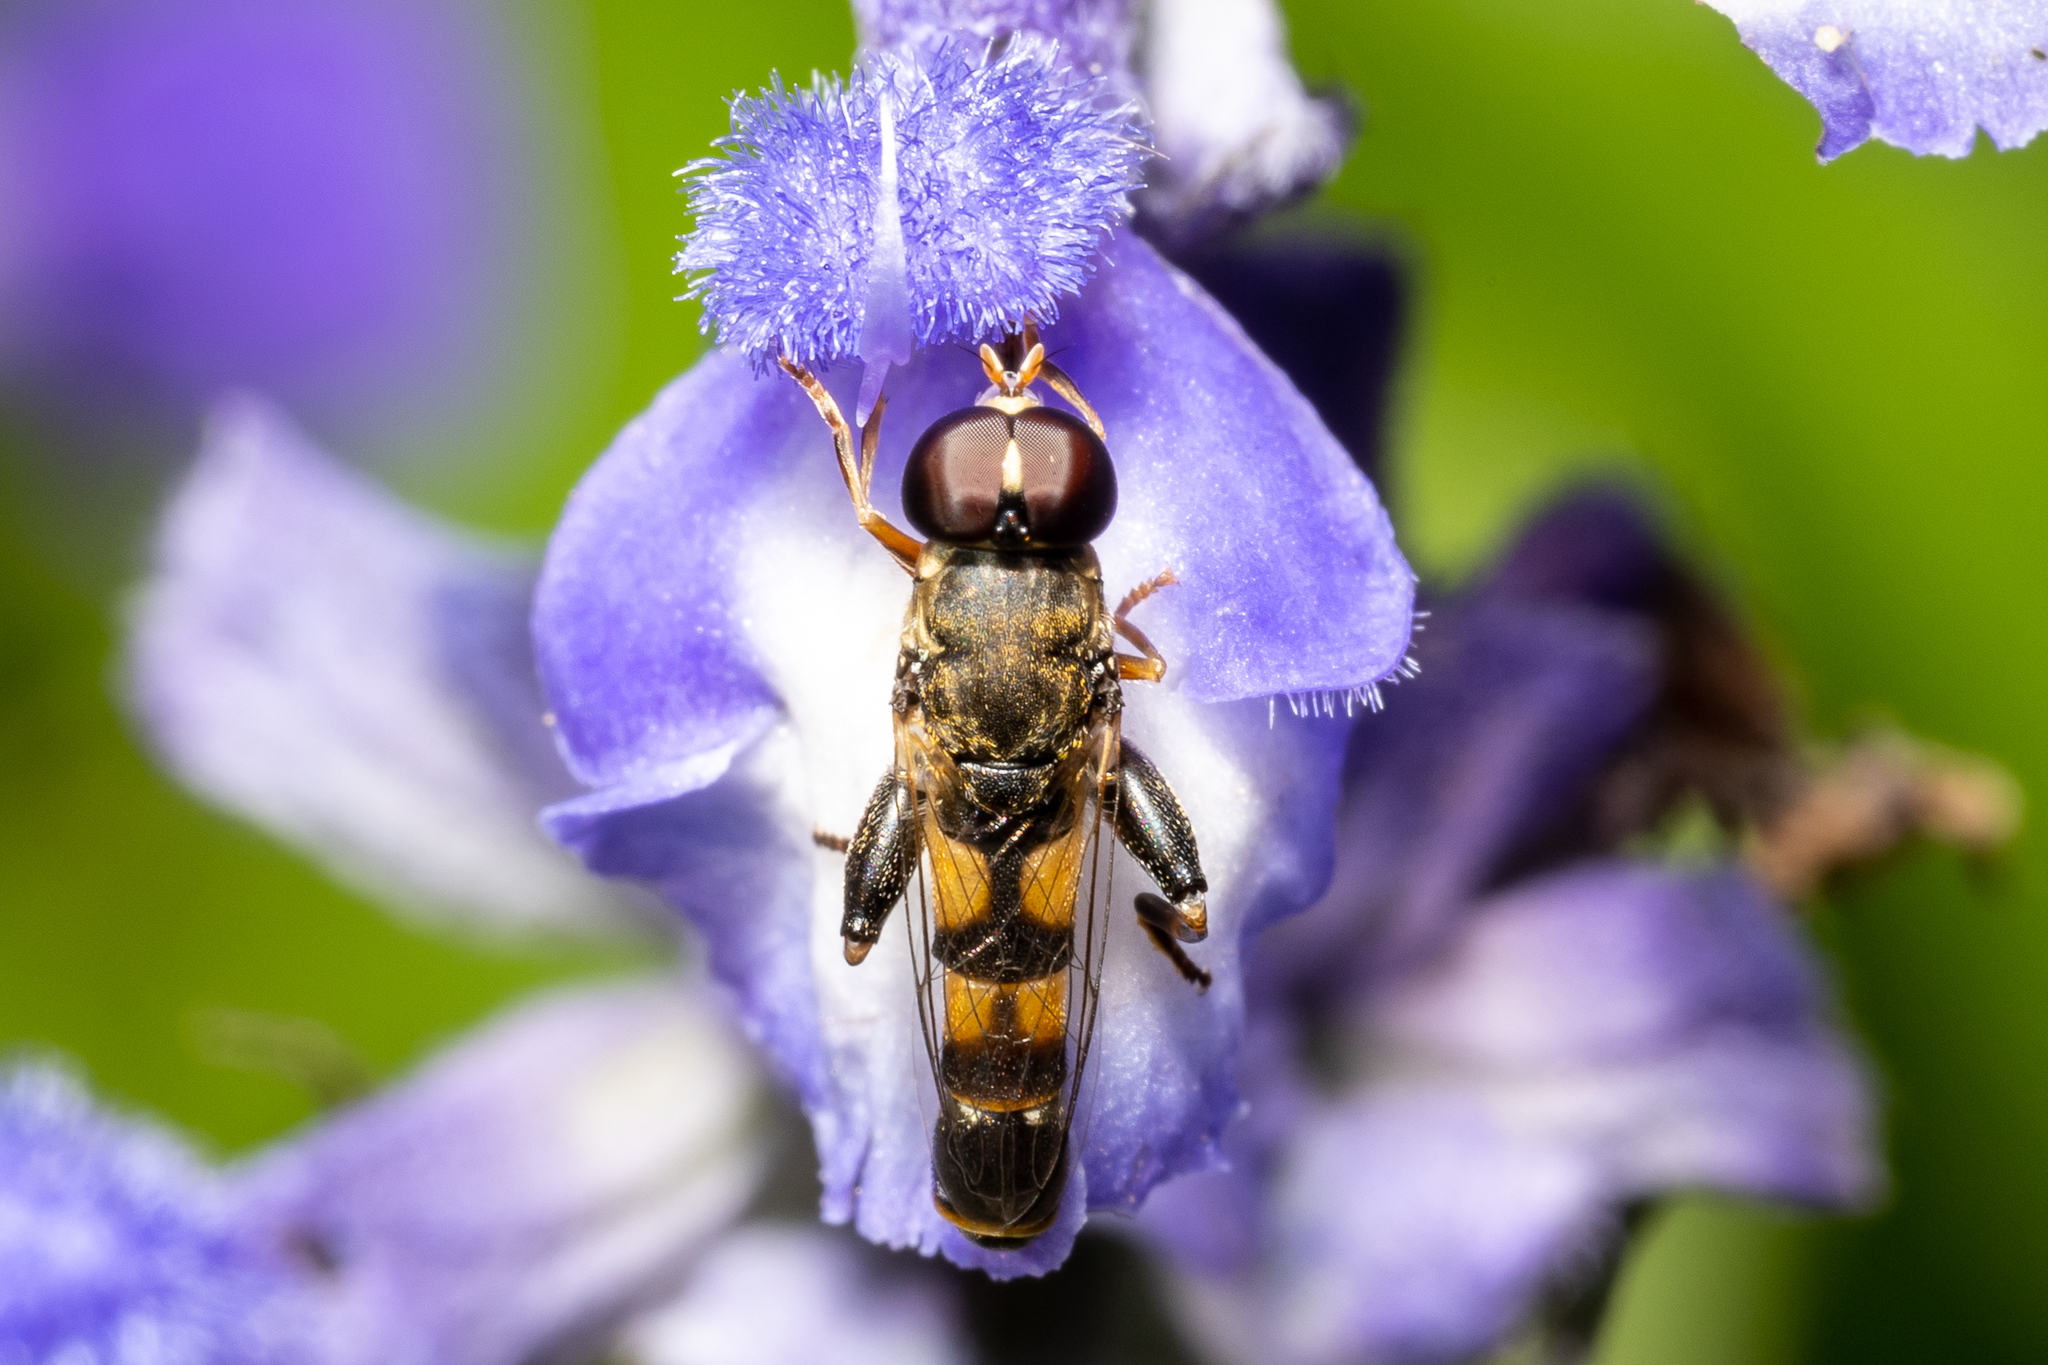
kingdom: Animalia
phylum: Arthropoda
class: Insecta
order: Diptera
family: Syrphidae
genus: Syritta
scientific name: Syritta pipiens
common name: Hover fly
